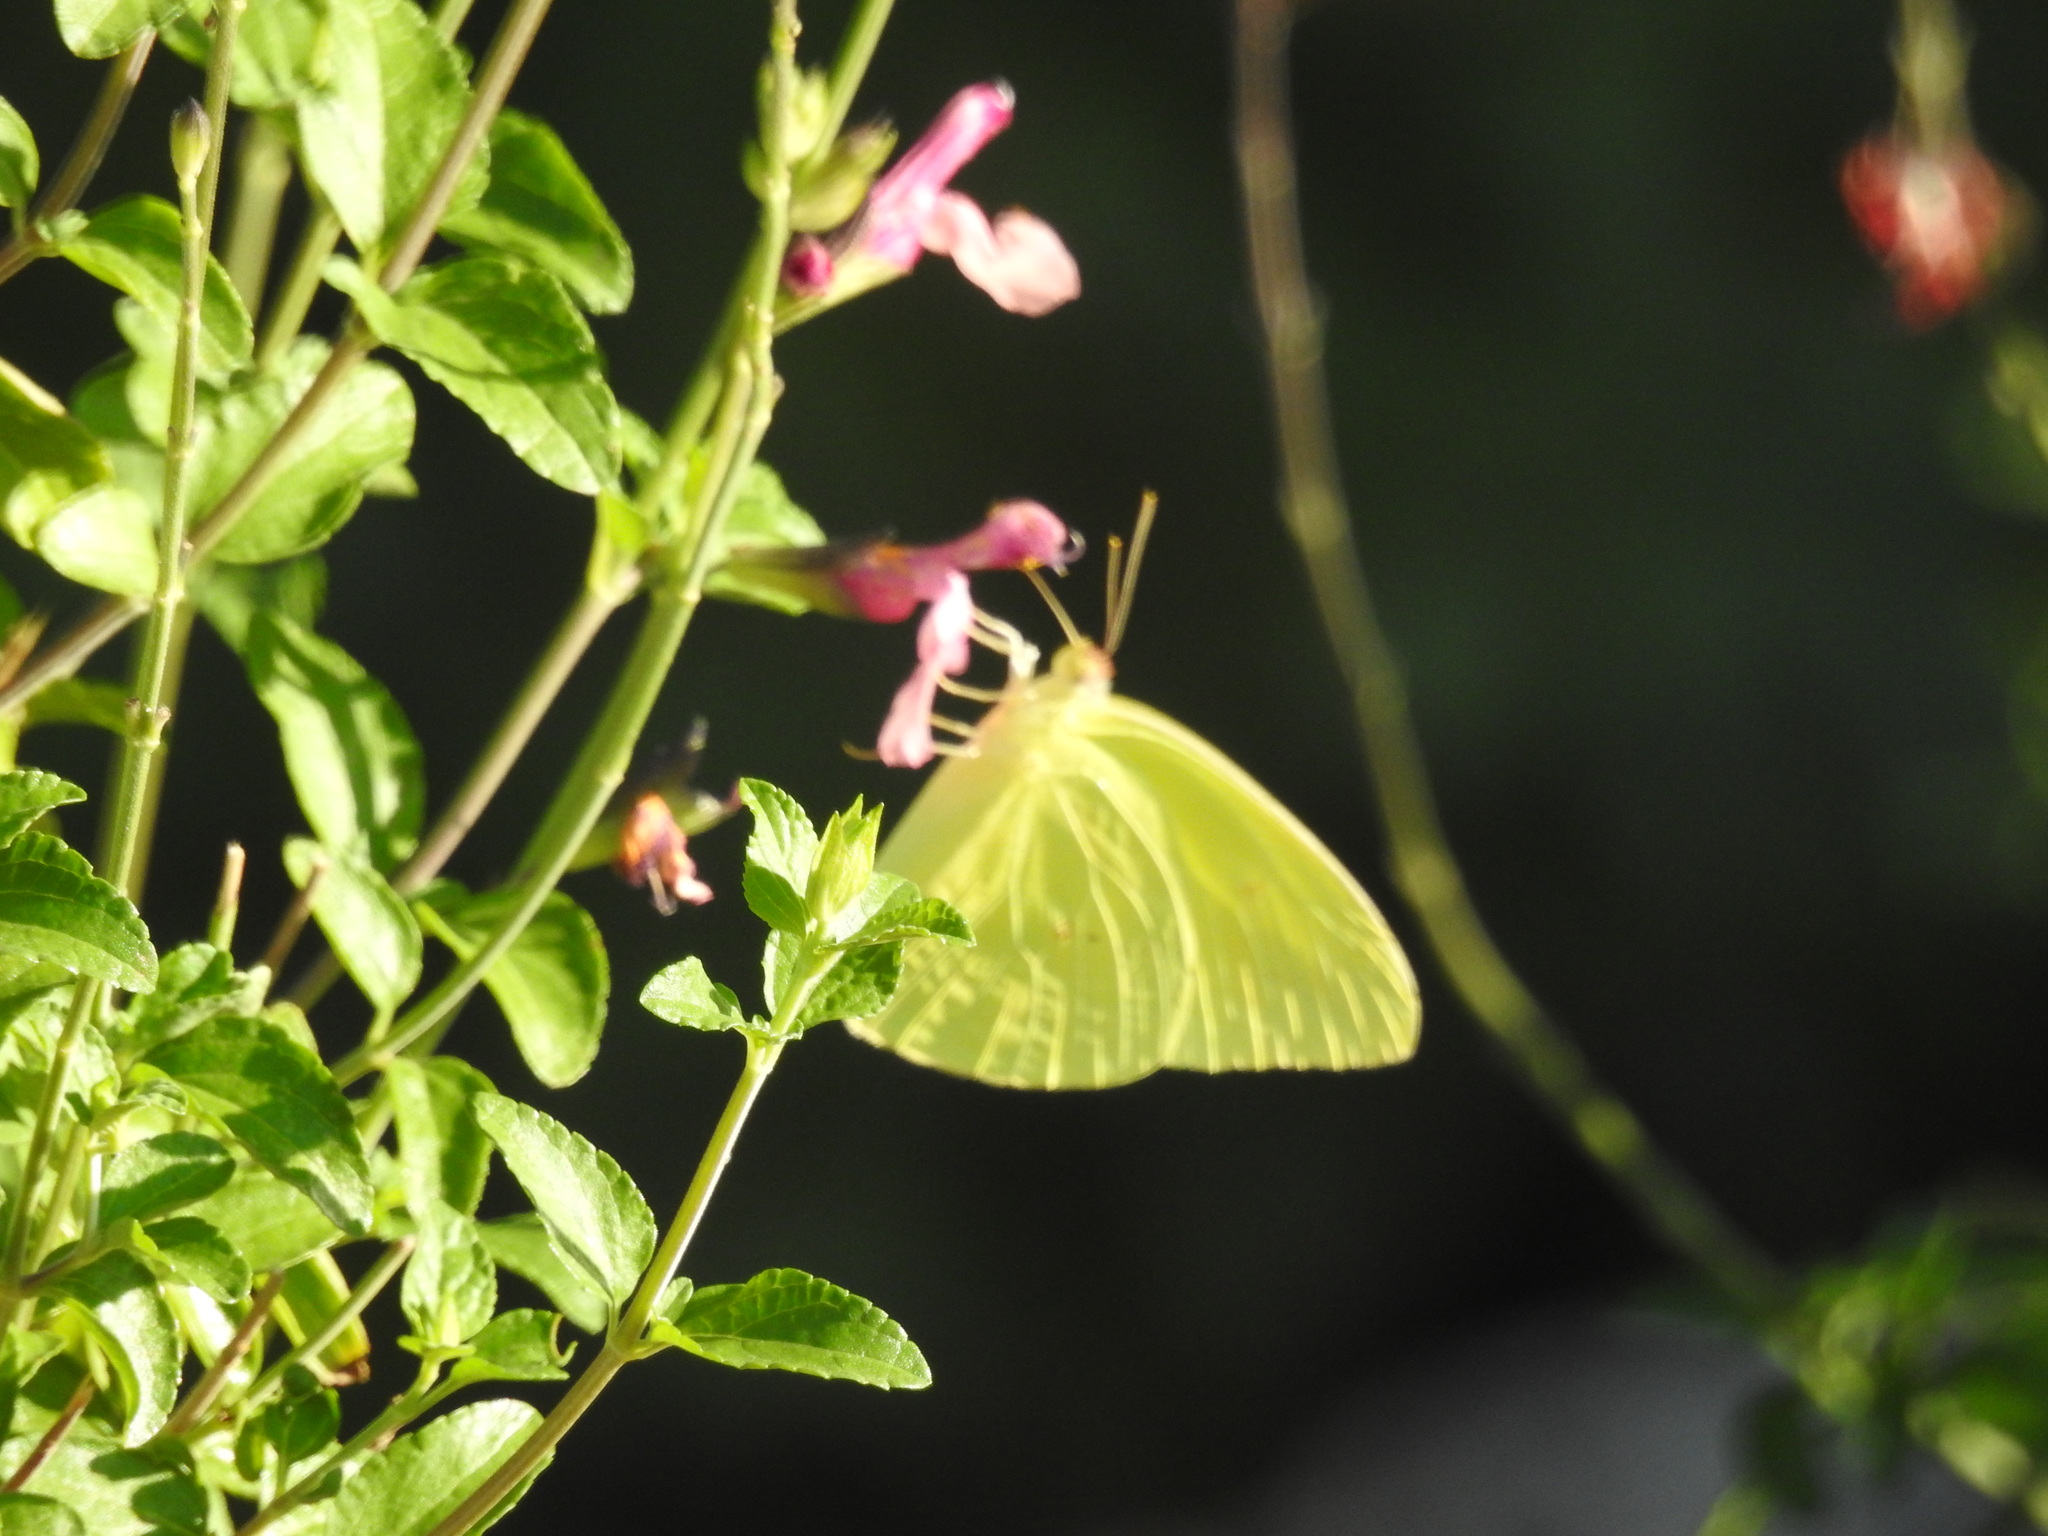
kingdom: Animalia
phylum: Arthropoda
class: Insecta
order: Lepidoptera
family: Pieridae
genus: Phoebis
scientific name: Phoebis sennae
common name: Cloudless sulphur
